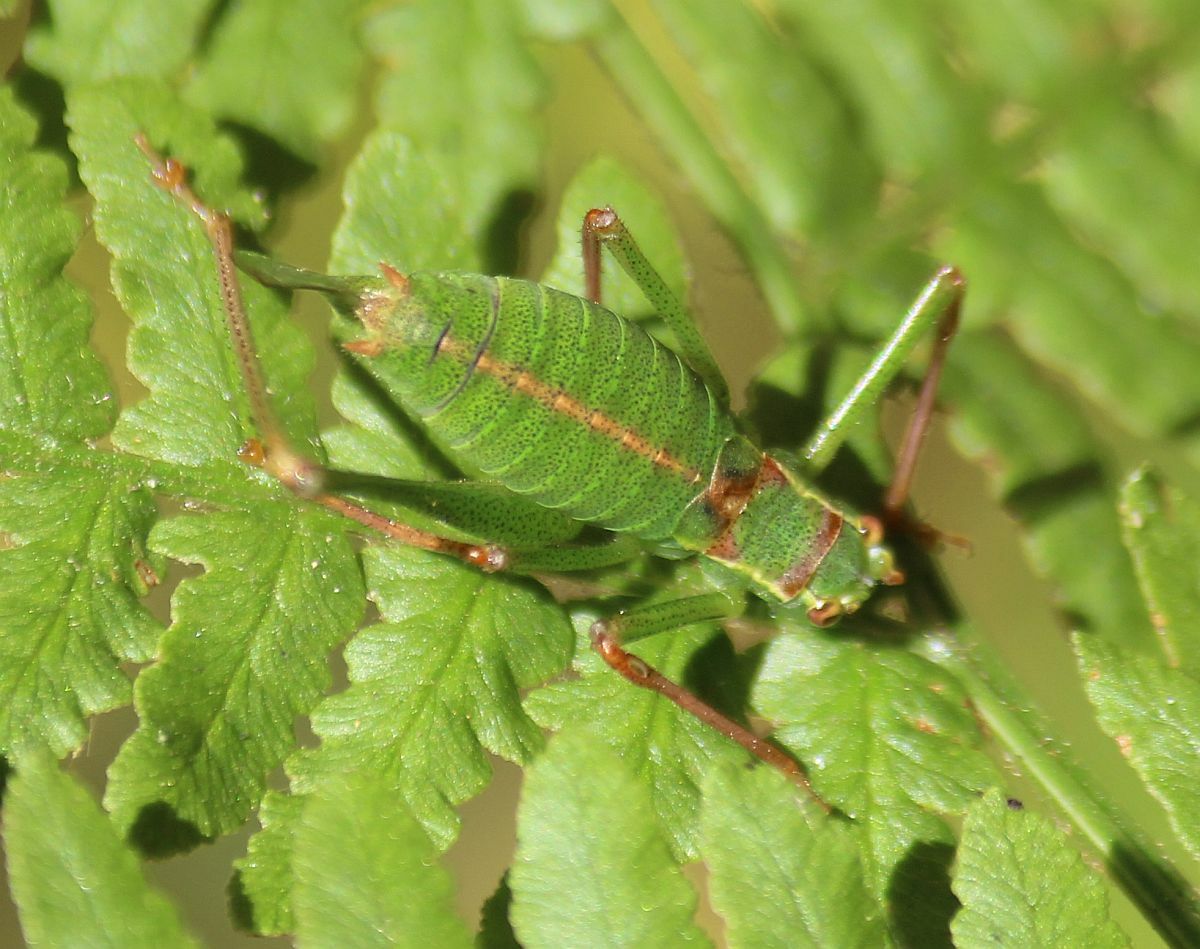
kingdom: Animalia
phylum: Arthropoda
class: Insecta
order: Orthoptera
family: Tettigoniidae
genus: Leptophyes
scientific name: Leptophyes punctatissima
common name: Speckled bush-cricket
